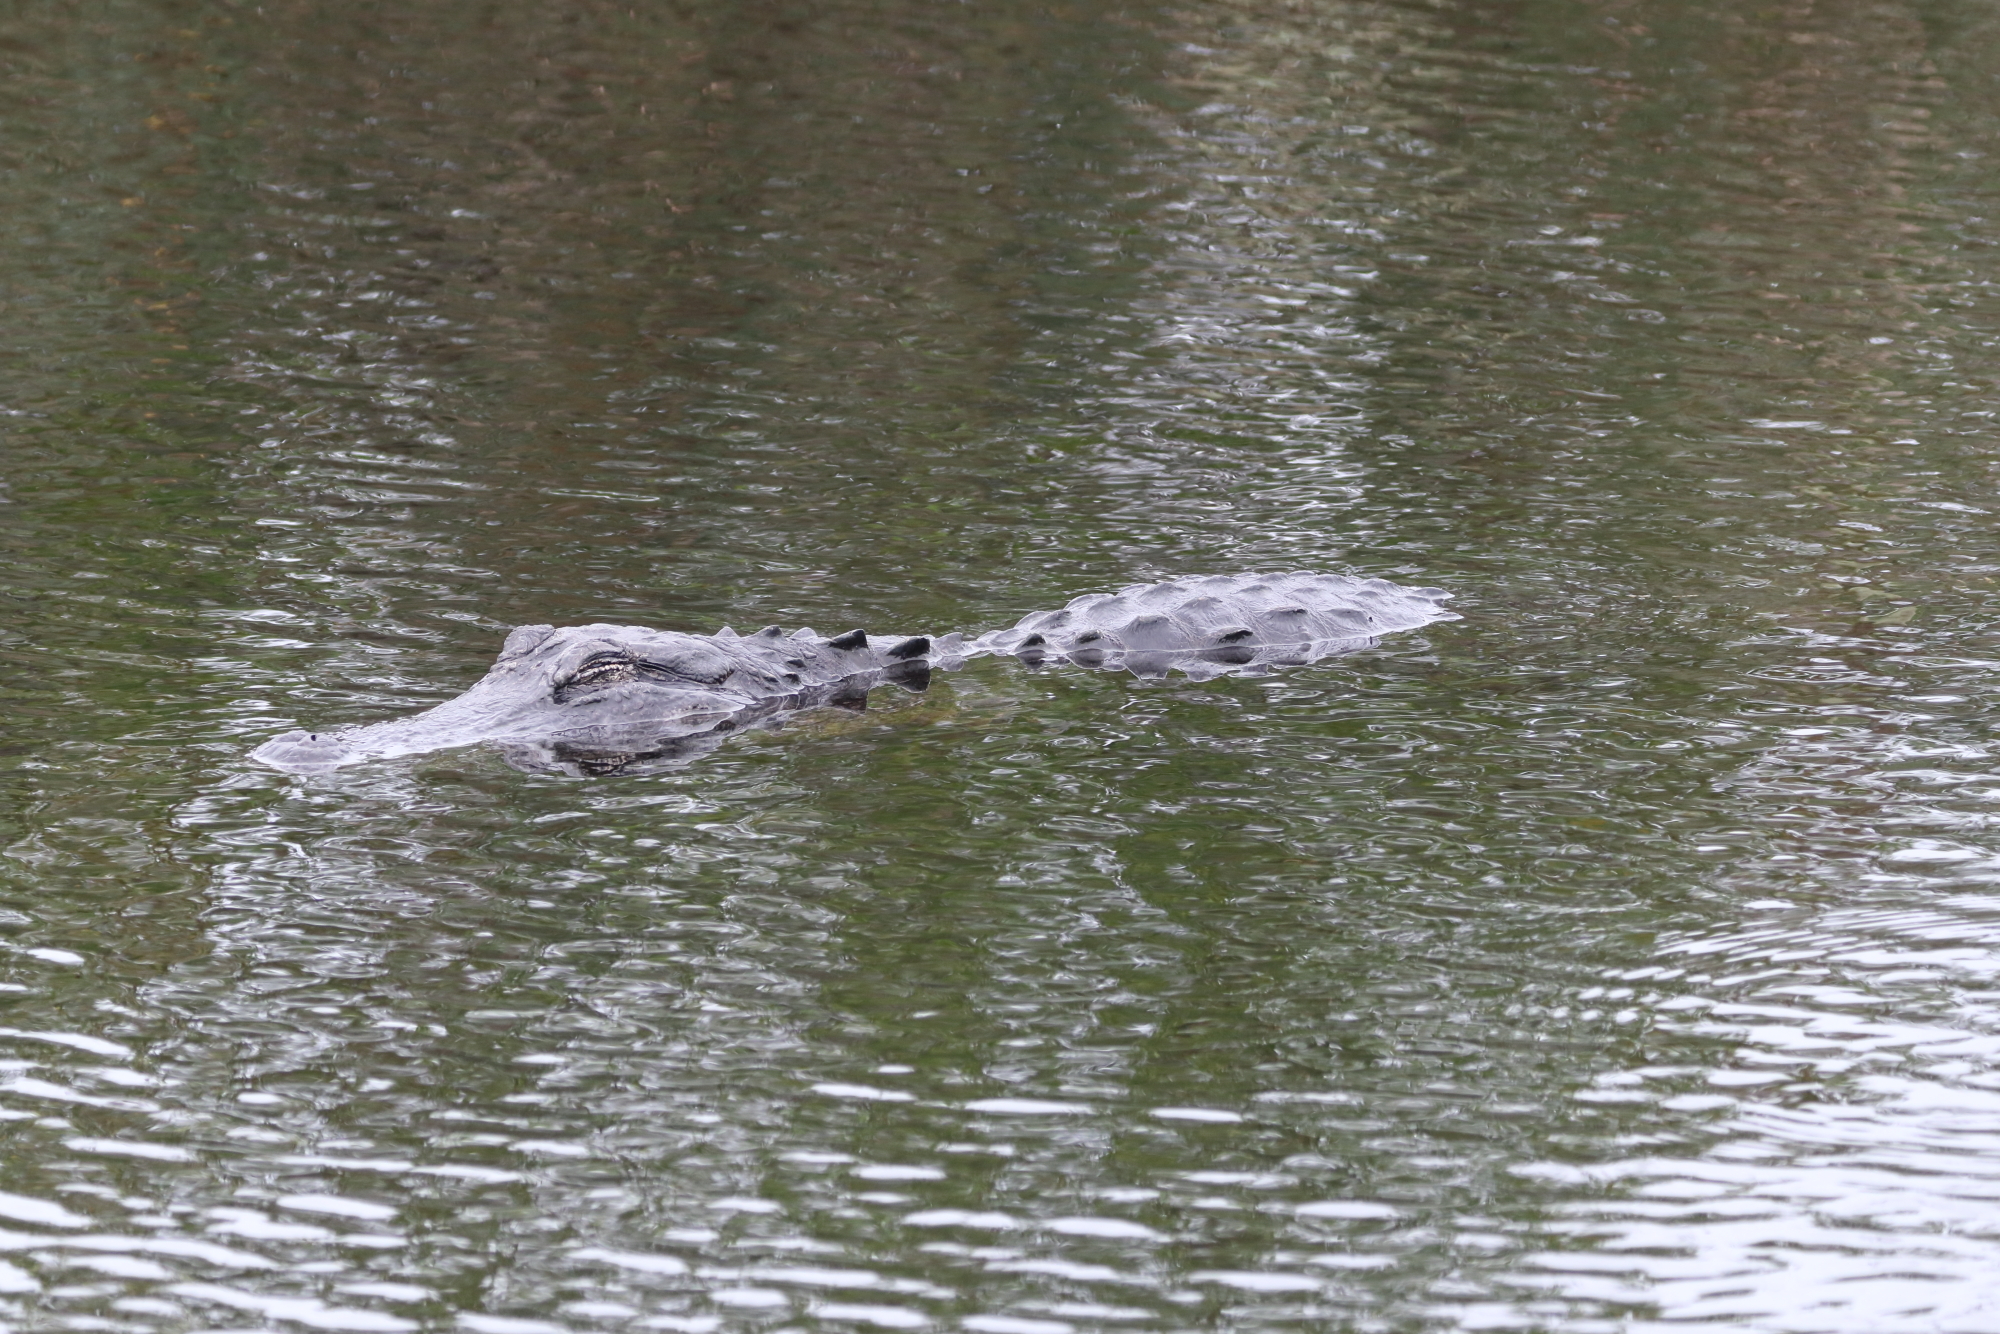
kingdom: Animalia
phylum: Chordata
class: Crocodylia
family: Alligatoridae
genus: Alligator
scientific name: Alligator mississippiensis
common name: American alligator
